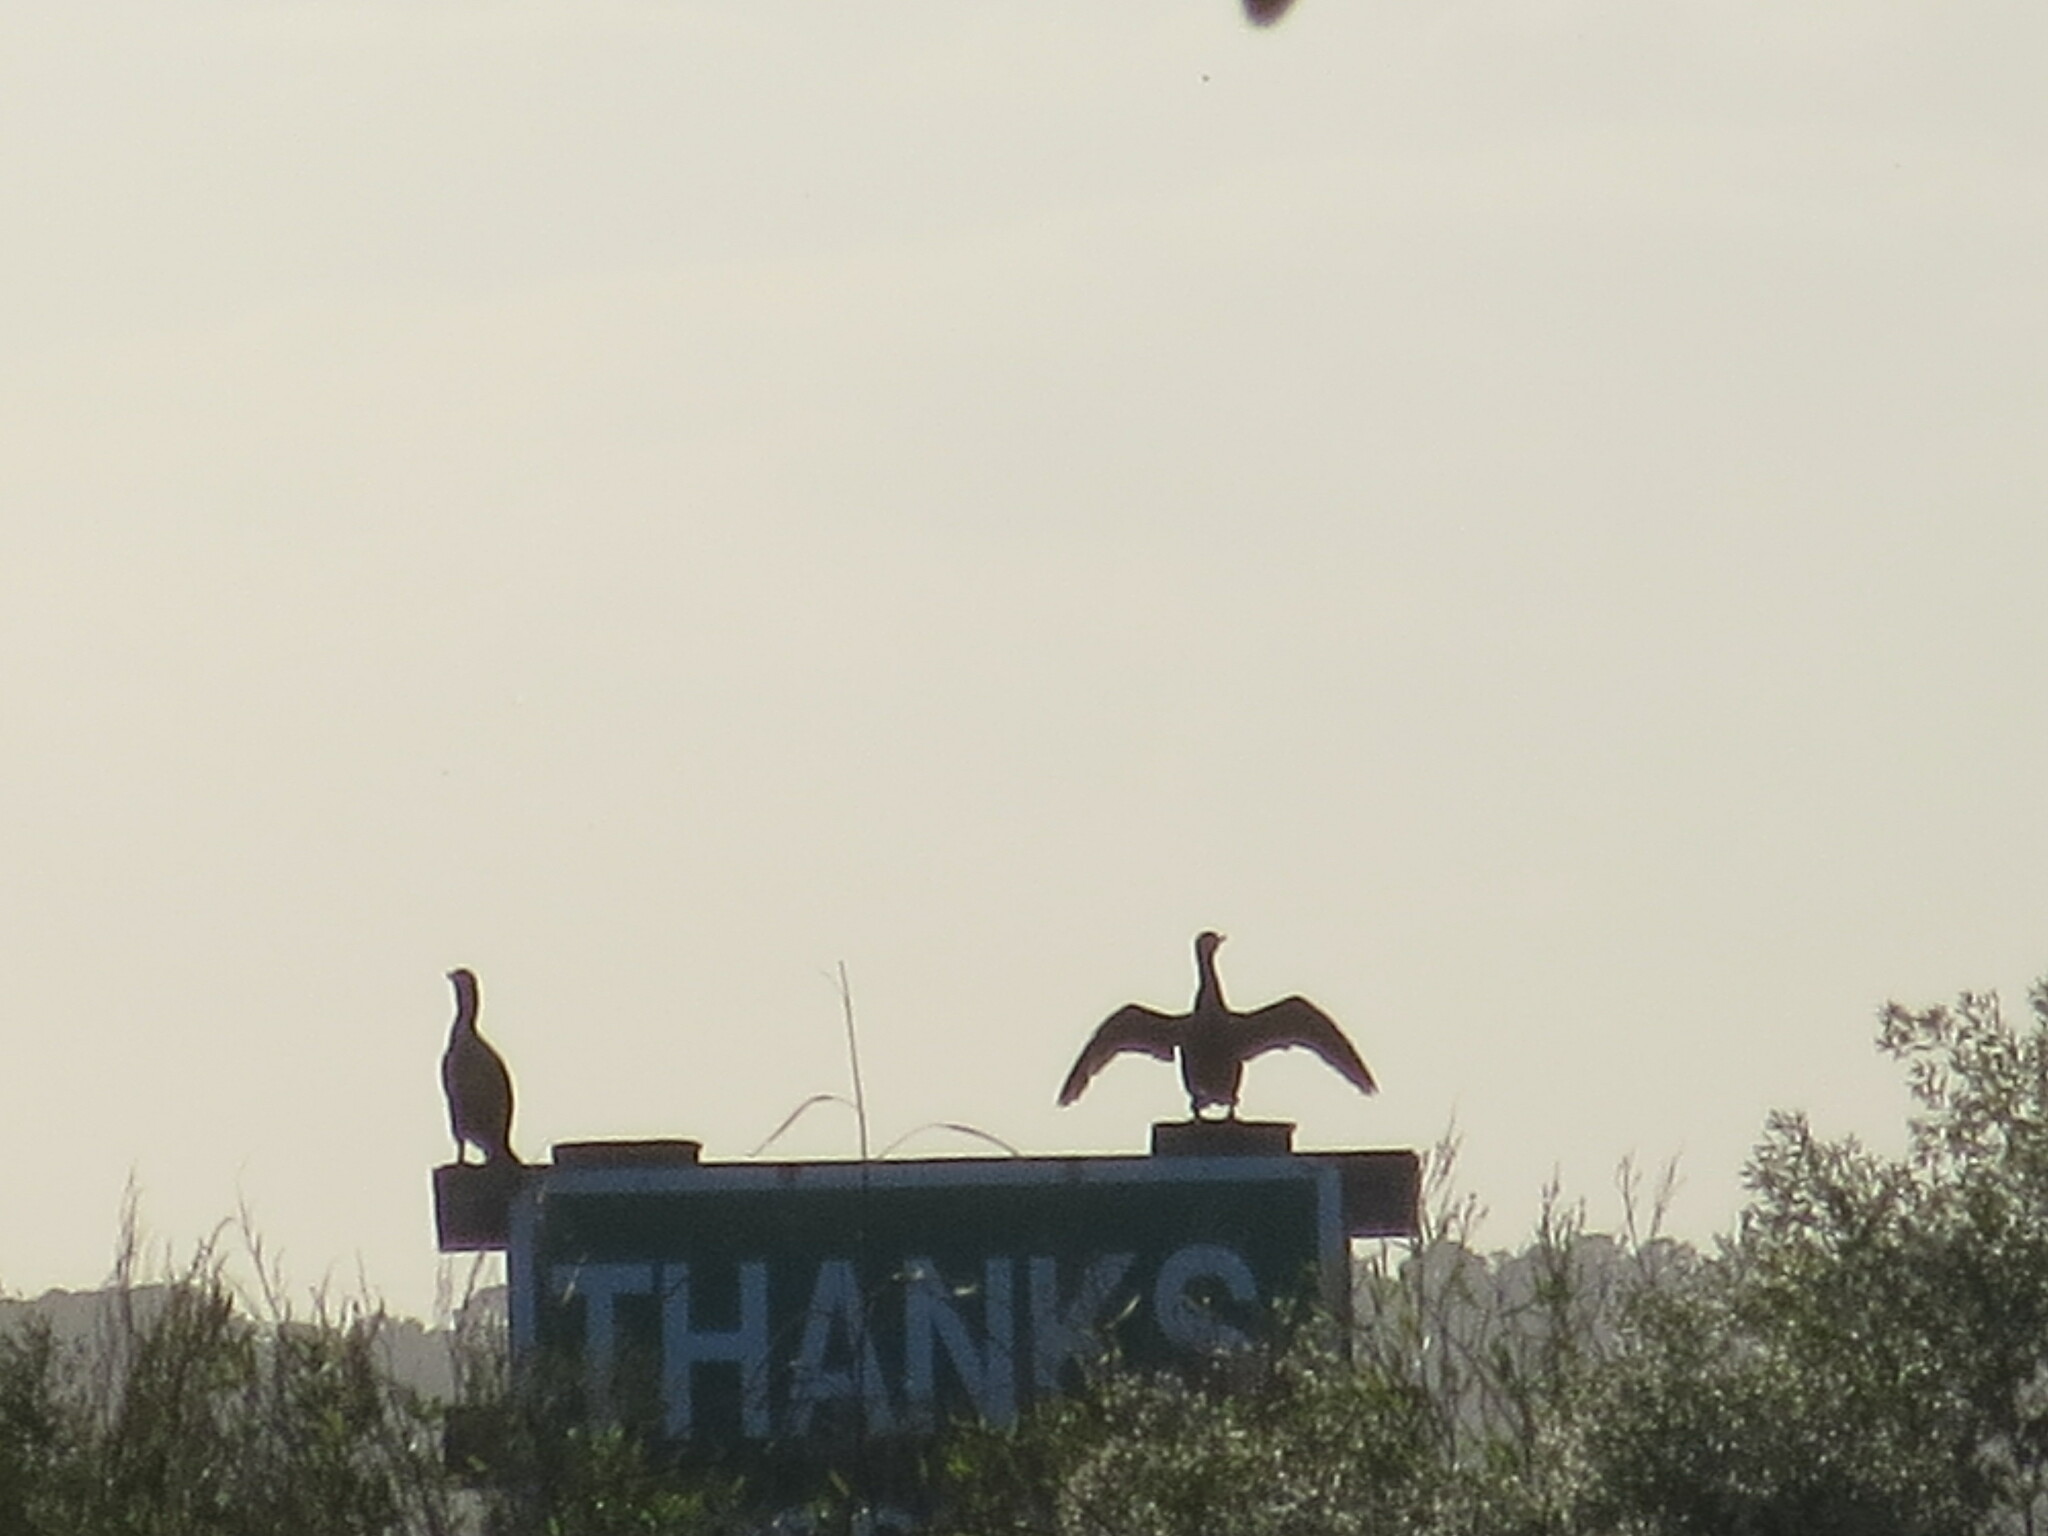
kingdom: Animalia
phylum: Chordata
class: Aves
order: Suliformes
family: Phalacrocoracidae
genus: Phalacrocorax
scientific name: Phalacrocorax auritus
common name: Double-crested cormorant
